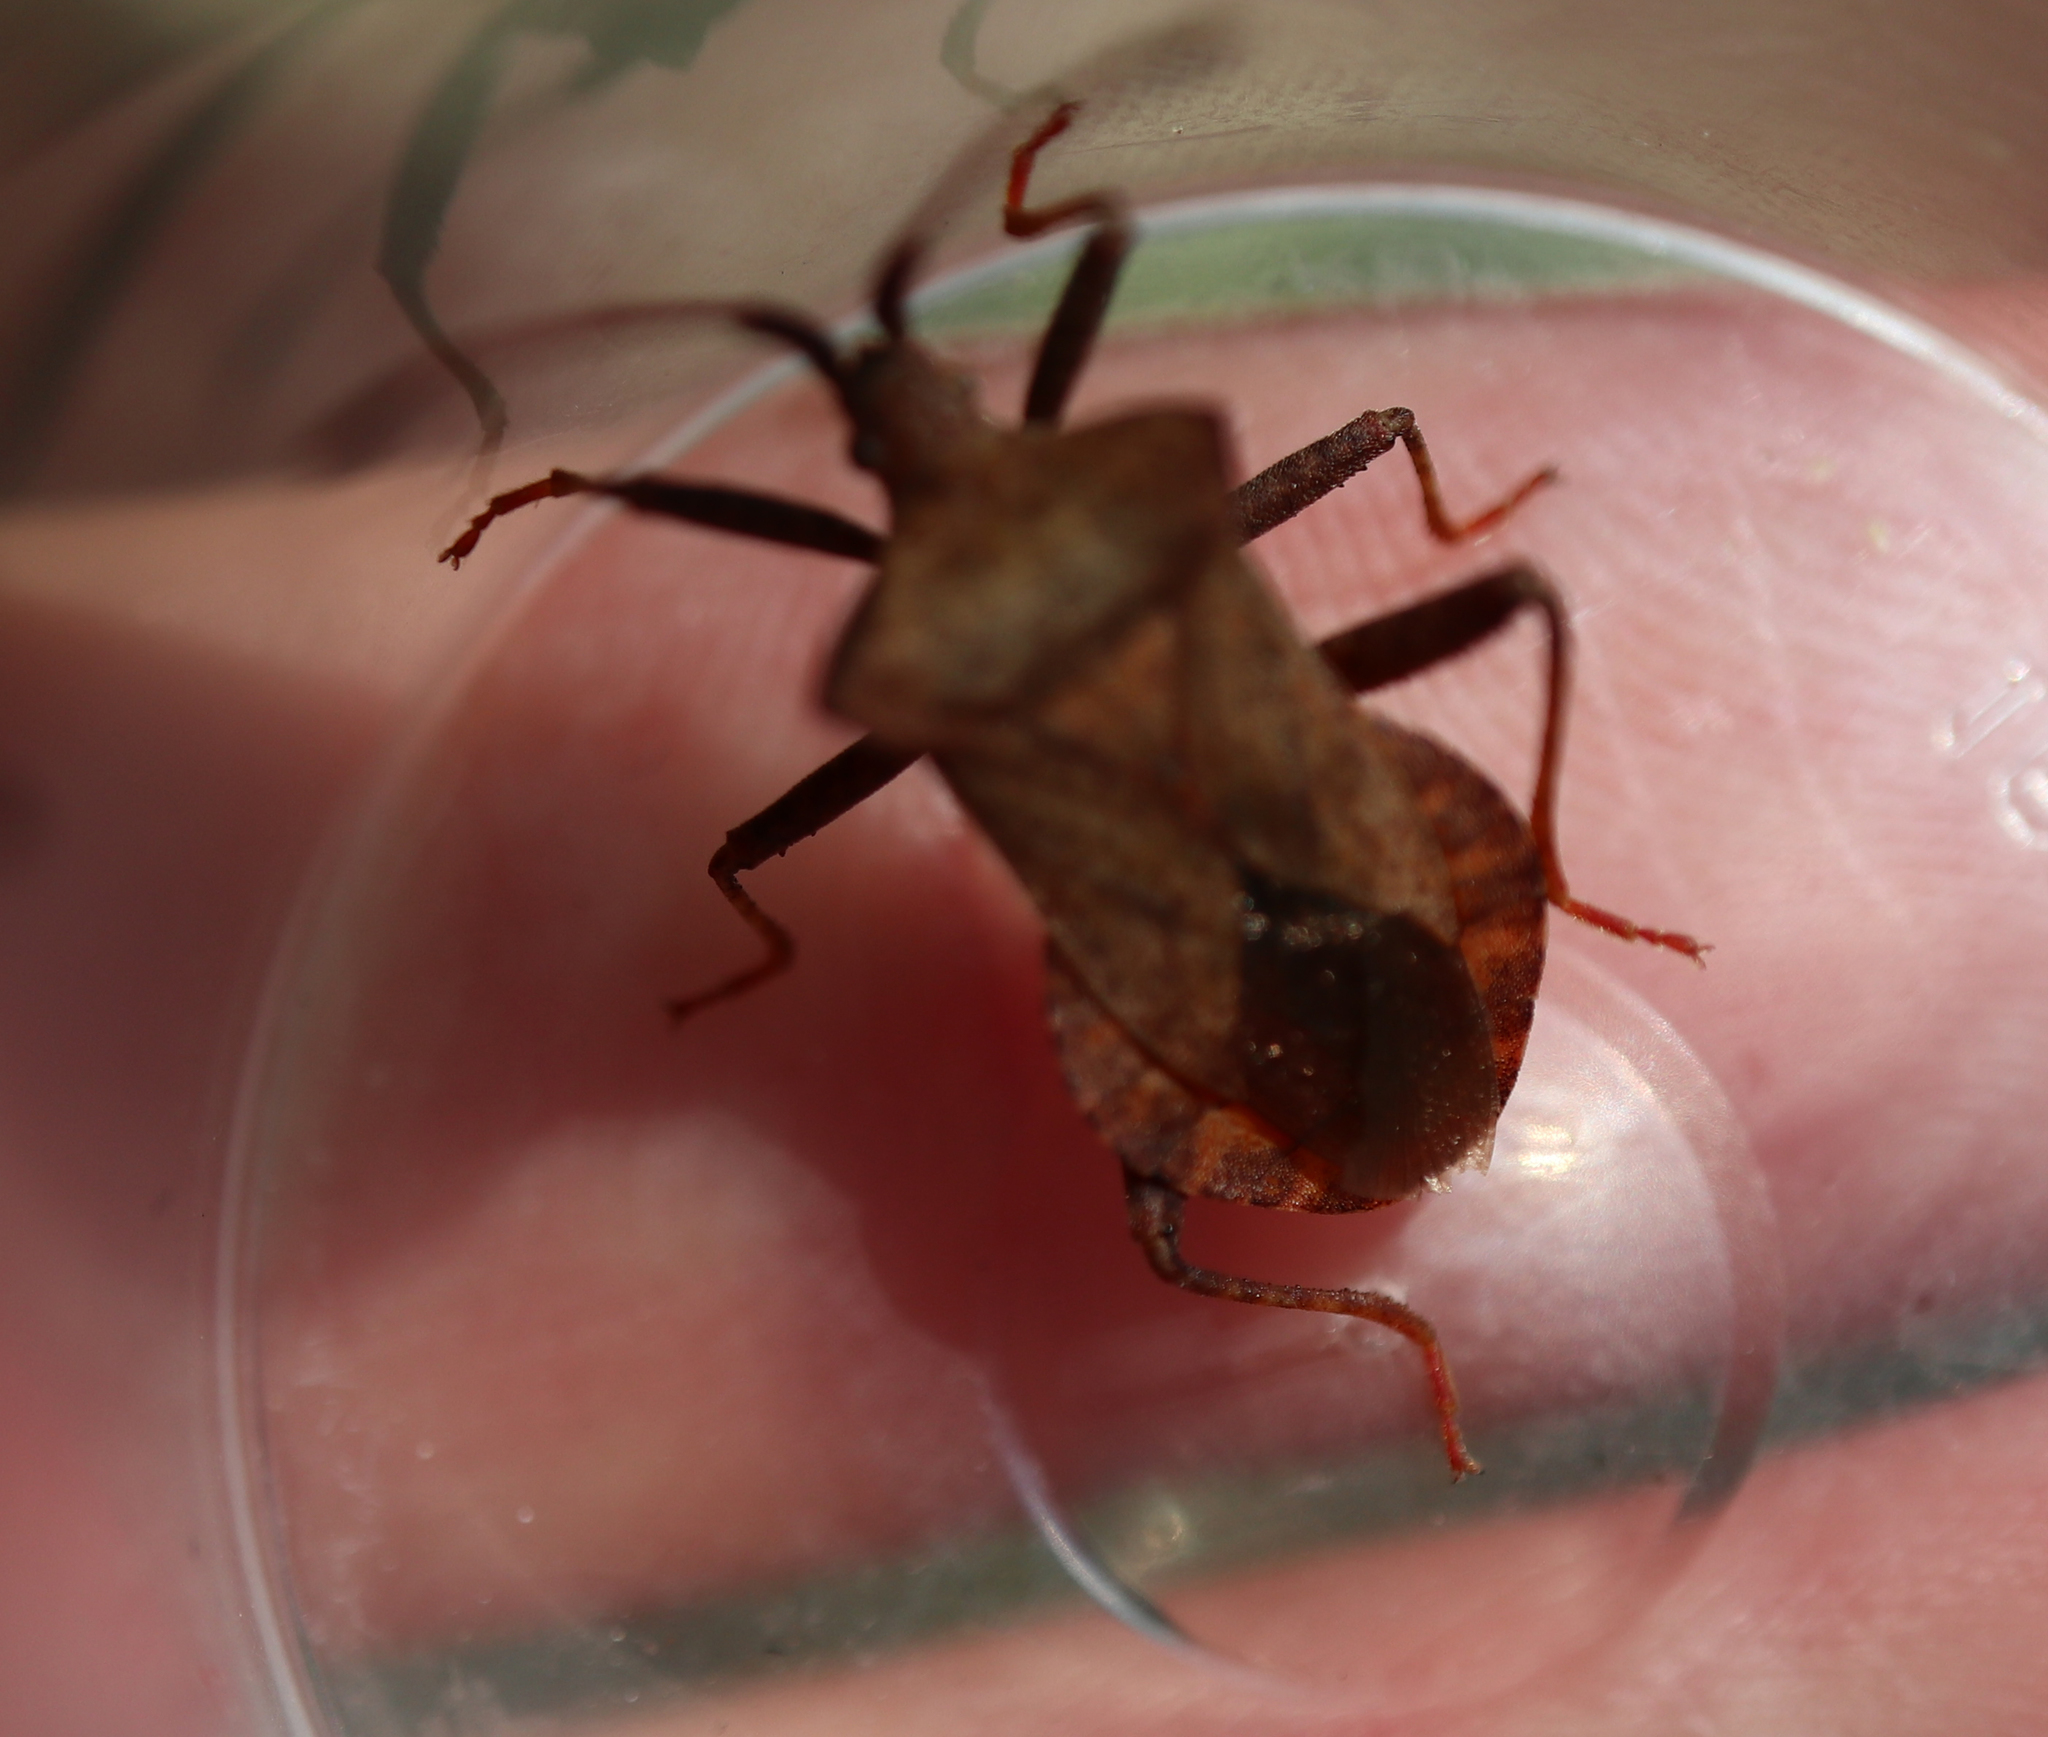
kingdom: Animalia
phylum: Arthropoda
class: Insecta
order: Hemiptera
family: Coreidae
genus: Coreus
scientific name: Coreus marginatus
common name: Dock bug
